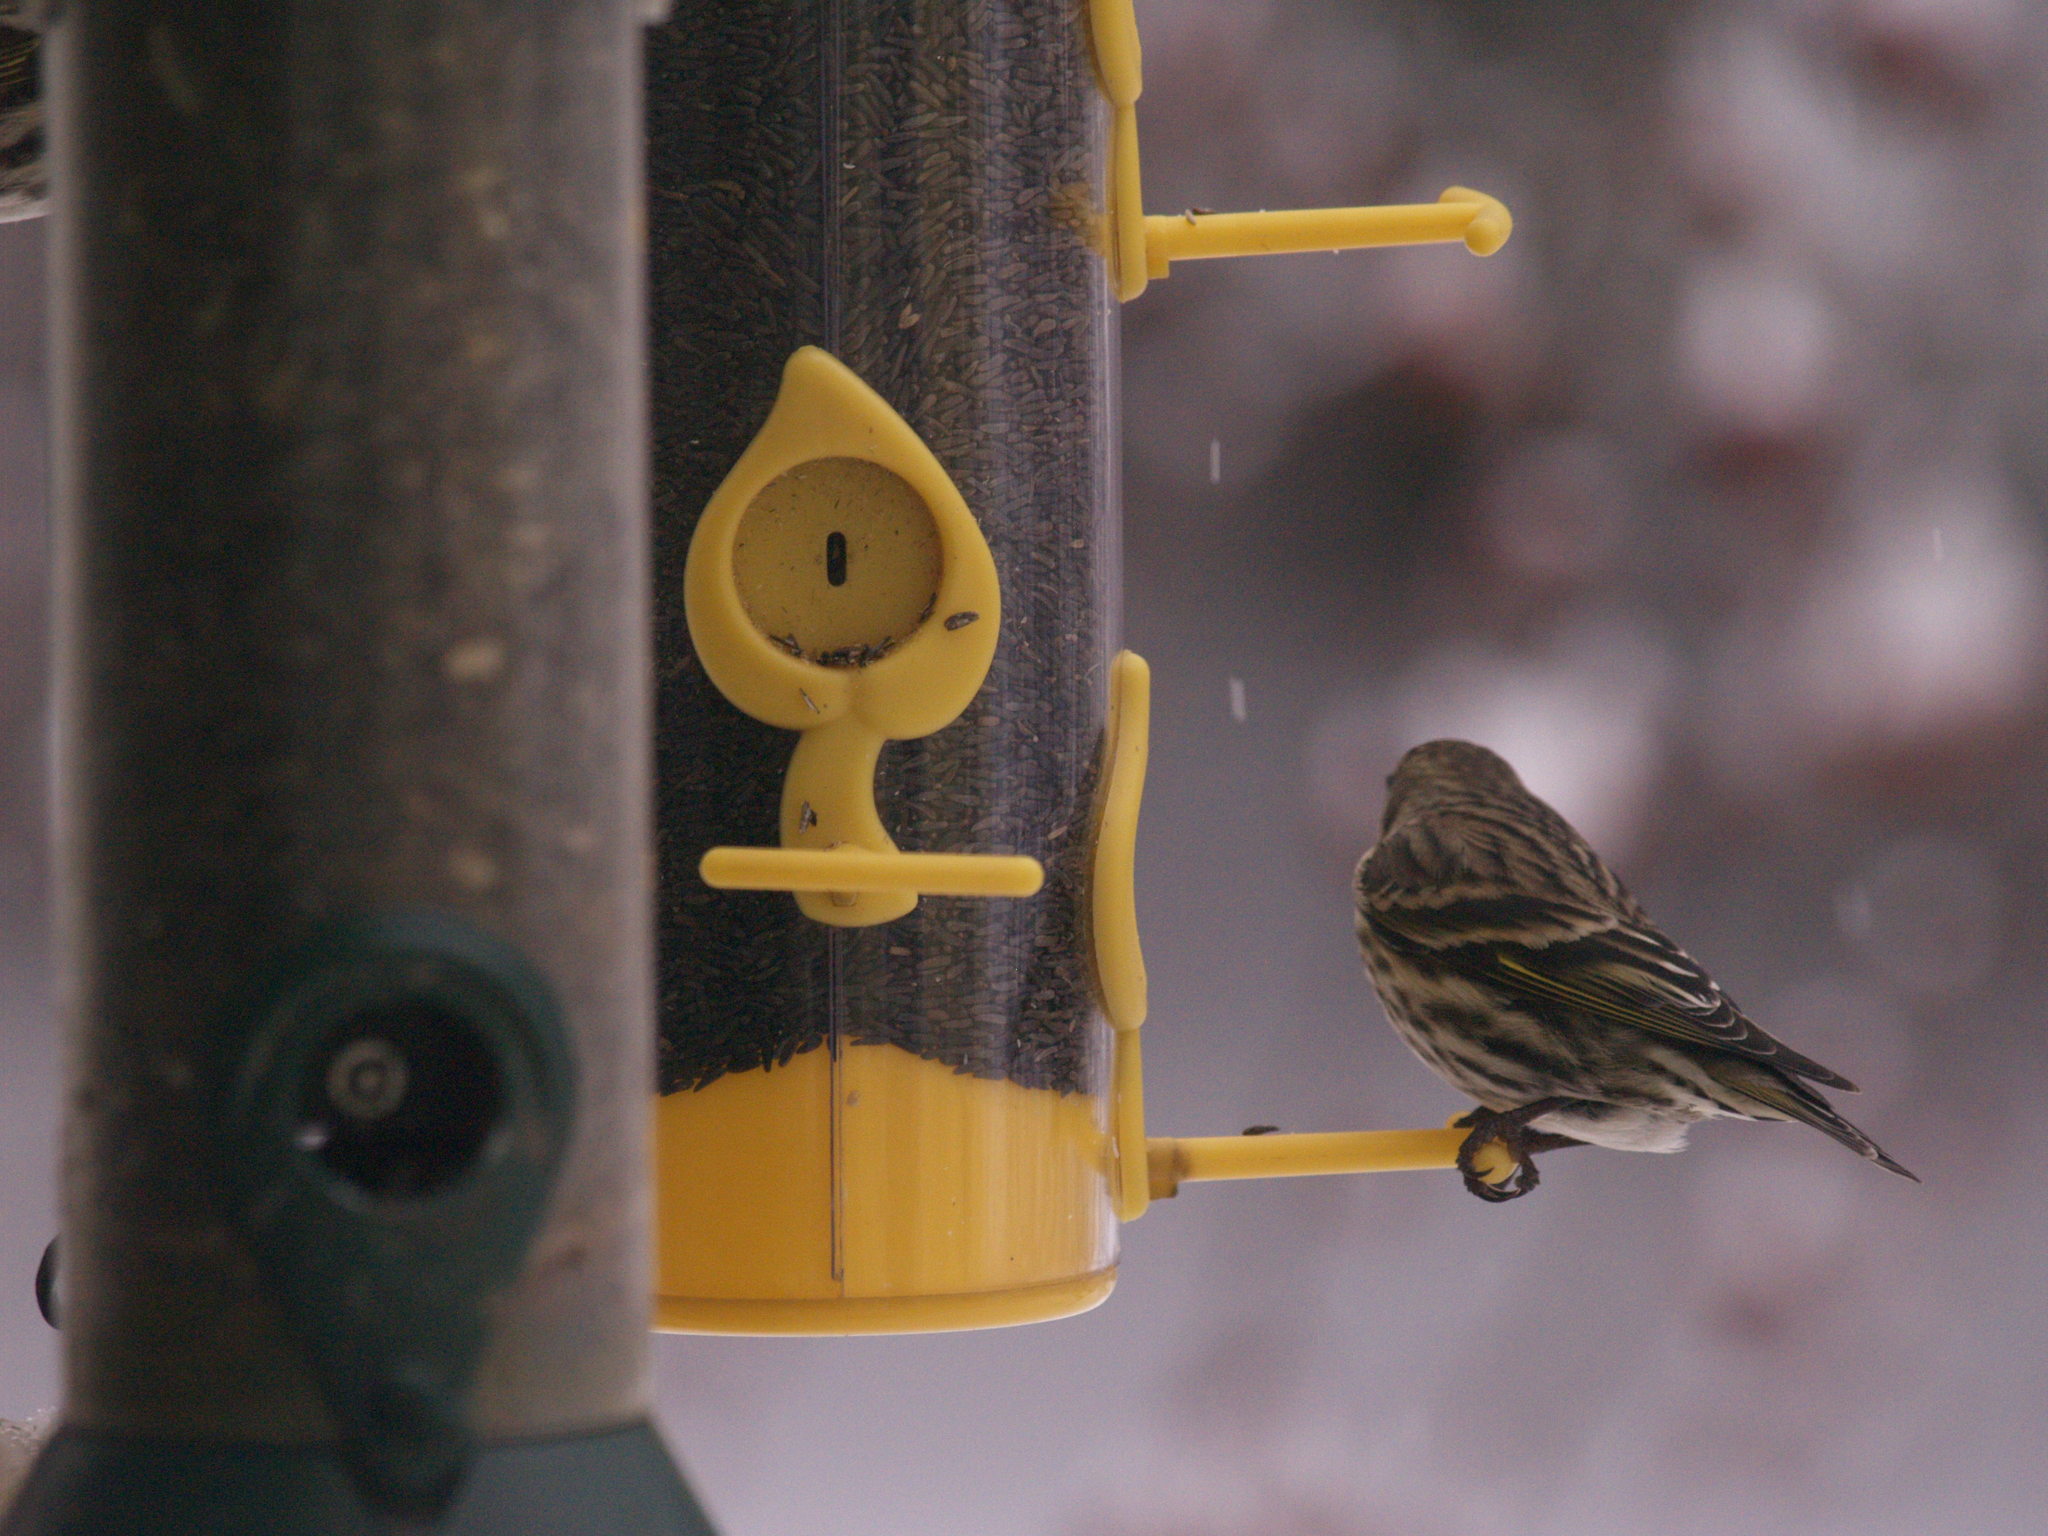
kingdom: Animalia
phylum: Chordata
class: Aves
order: Passeriformes
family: Fringillidae
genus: Spinus
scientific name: Spinus pinus
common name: Pine siskin
